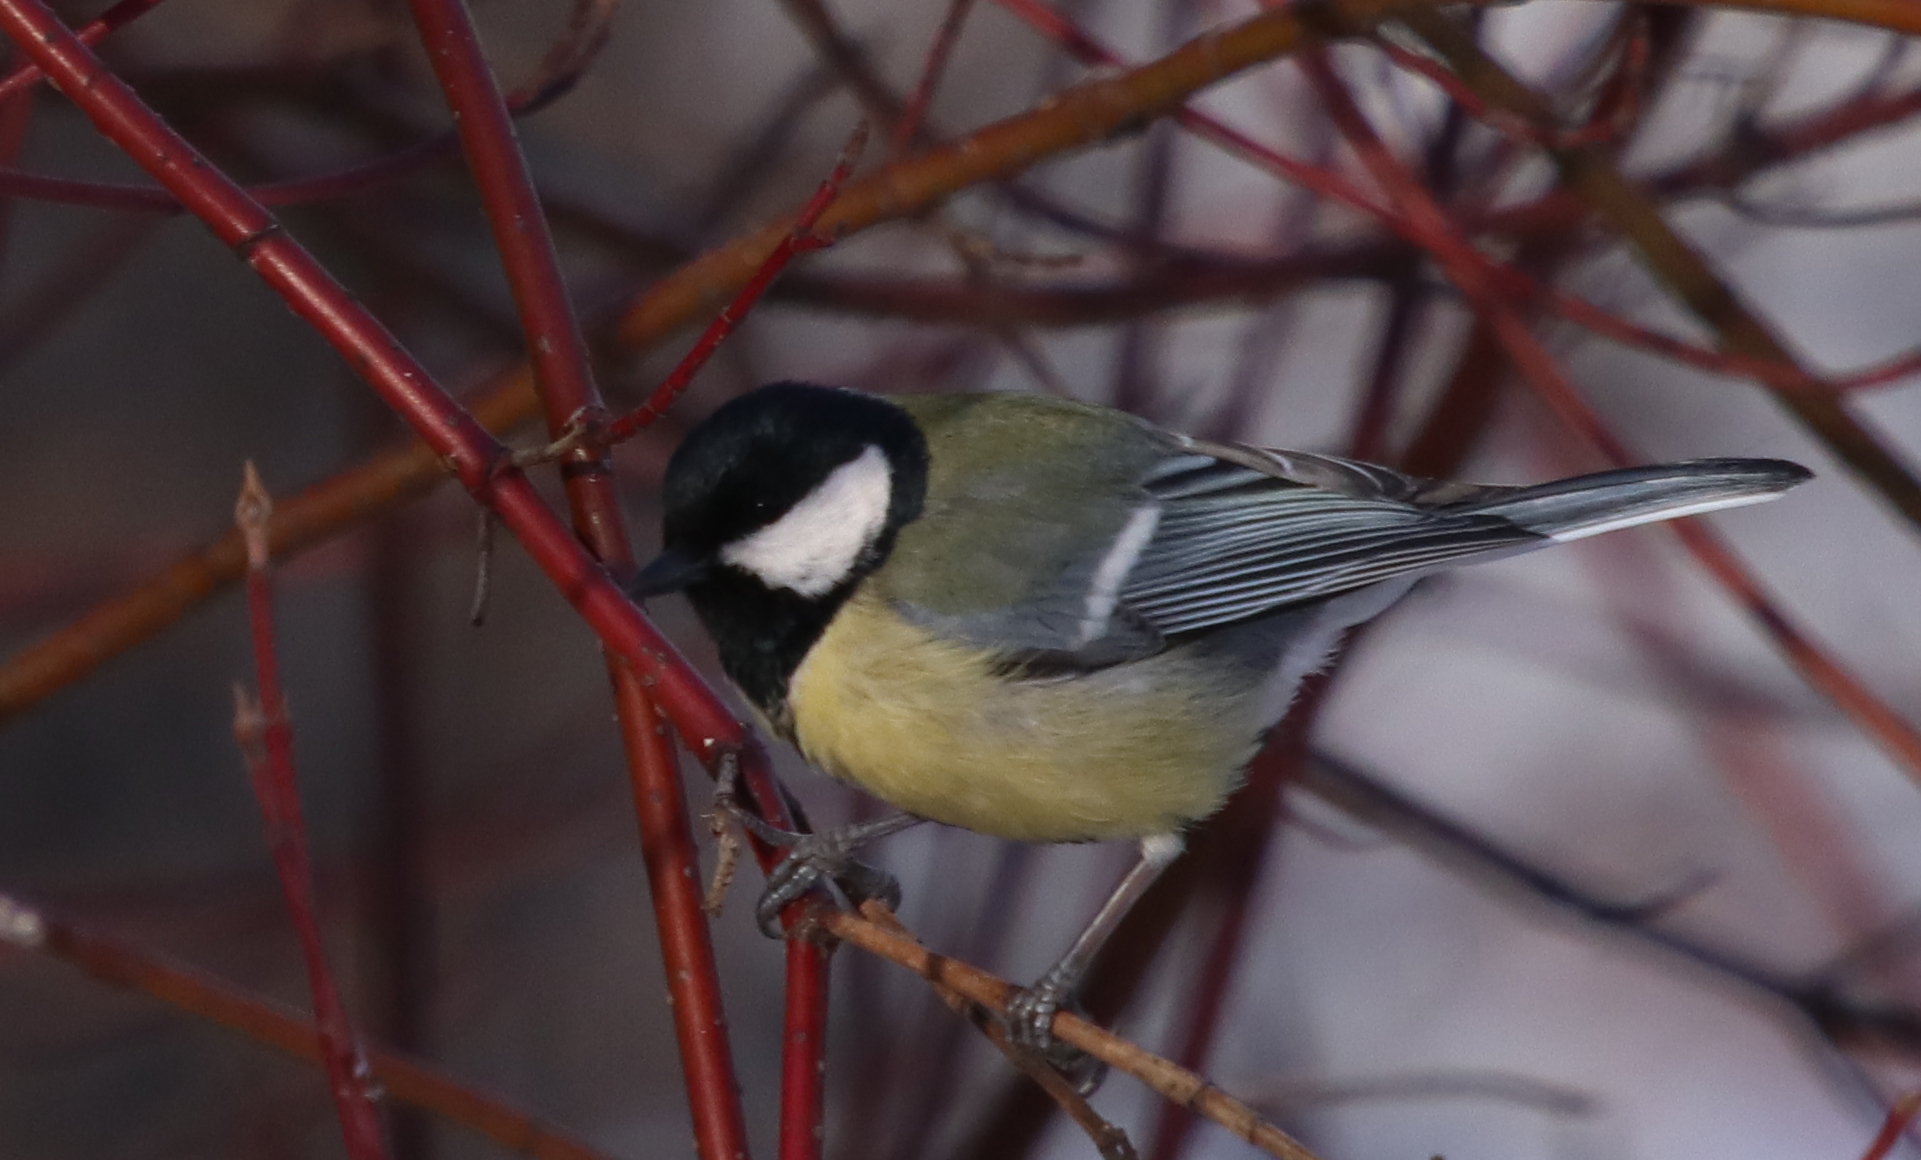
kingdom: Animalia
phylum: Chordata
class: Aves
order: Passeriformes
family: Paridae
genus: Parus
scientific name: Parus major
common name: Great tit
